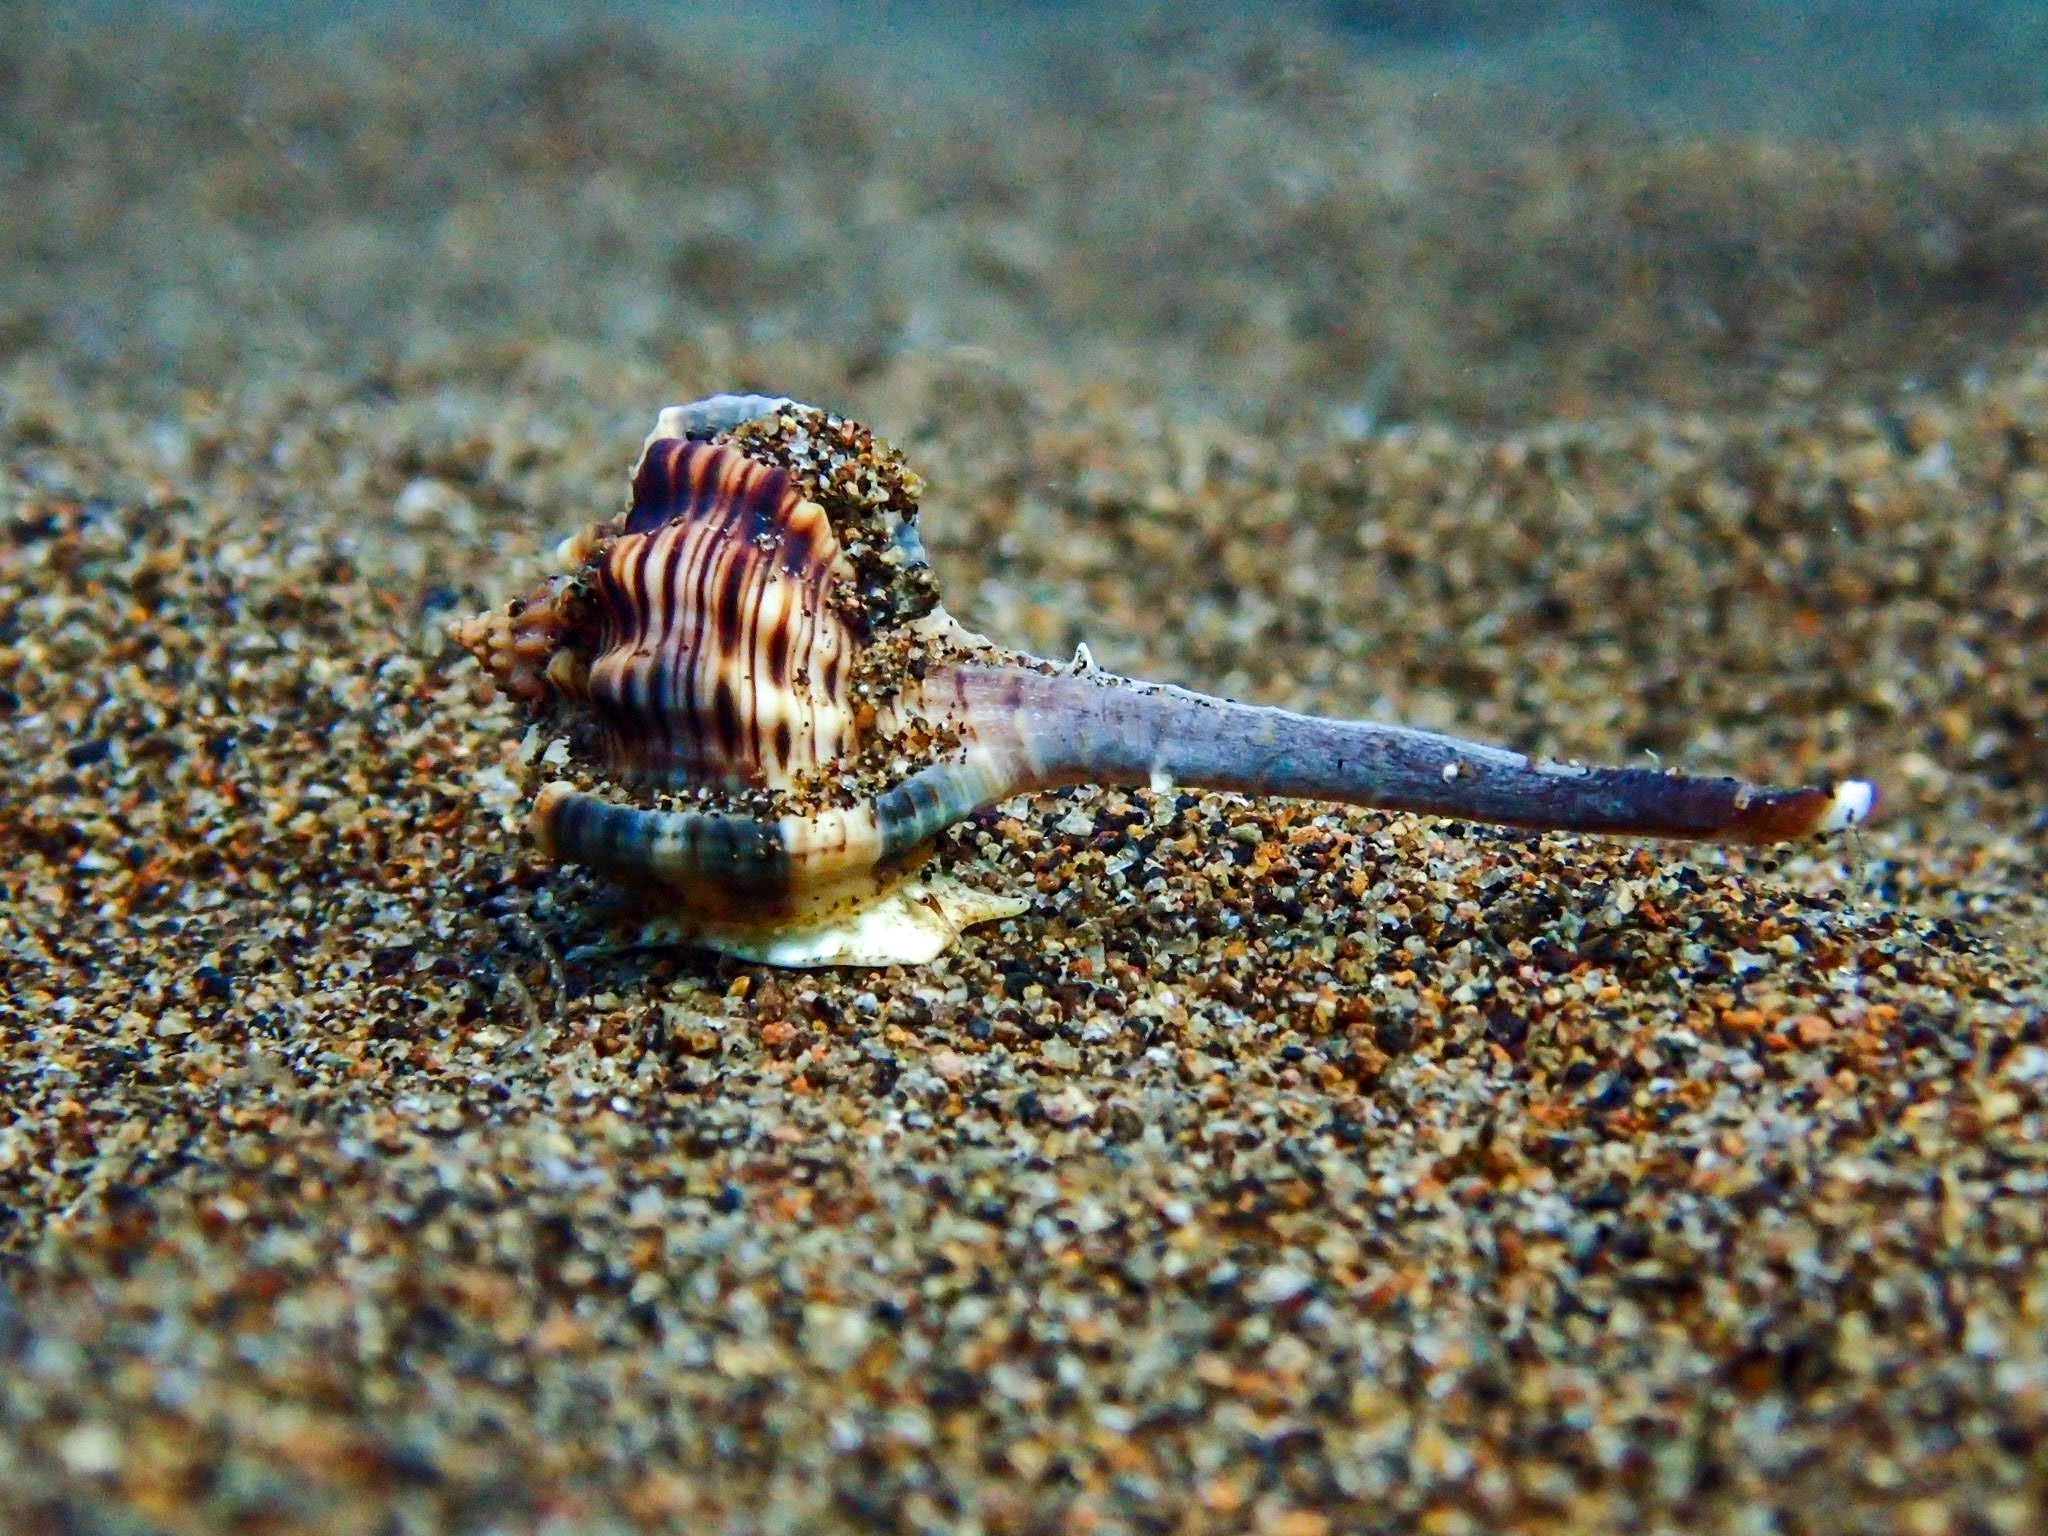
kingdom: Animalia
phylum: Mollusca
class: Gastropoda
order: Neogastropoda
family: Muricidae
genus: Haustellum
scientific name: Haustellum haustellum
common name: Snipe's bill murex
